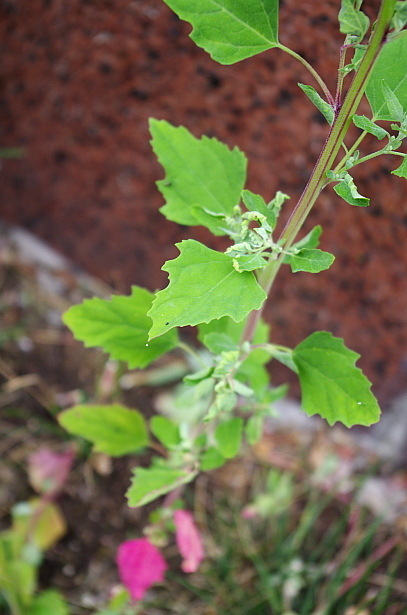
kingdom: Plantae
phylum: Tracheophyta
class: Magnoliopsida
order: Caryophyllales
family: Amaranthaceae
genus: Chenopodium
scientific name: Chenopodium album
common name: Fat-hen
